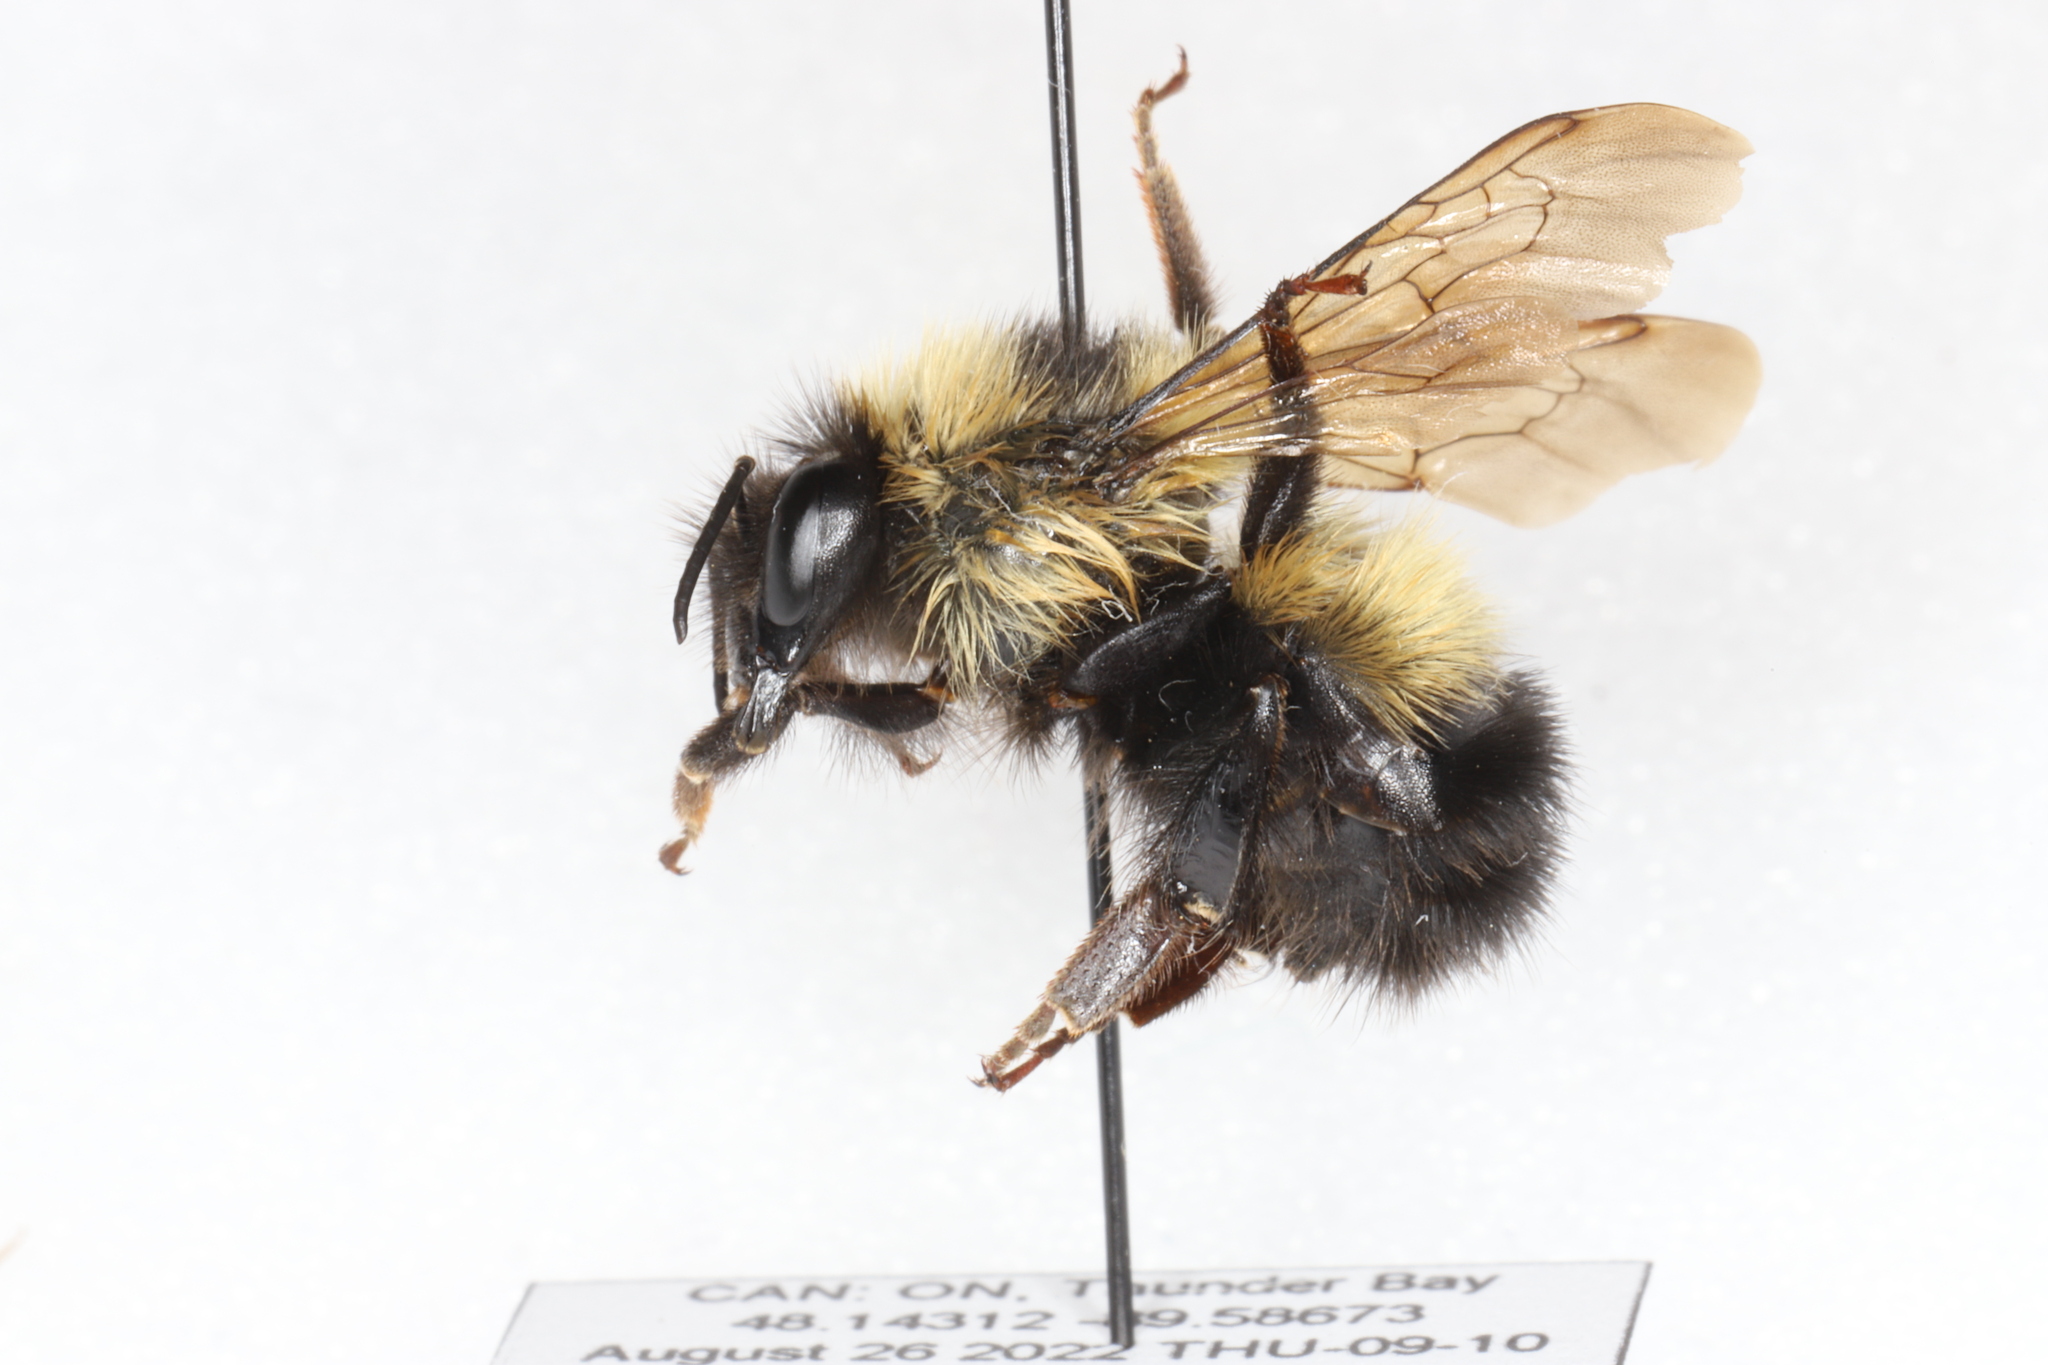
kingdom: Animalia
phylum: Arthropoda
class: Insecta
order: Hymenoptera
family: Apidae
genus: Bombus
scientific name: Bombus sandersoni
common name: Sanderson bumble bee
